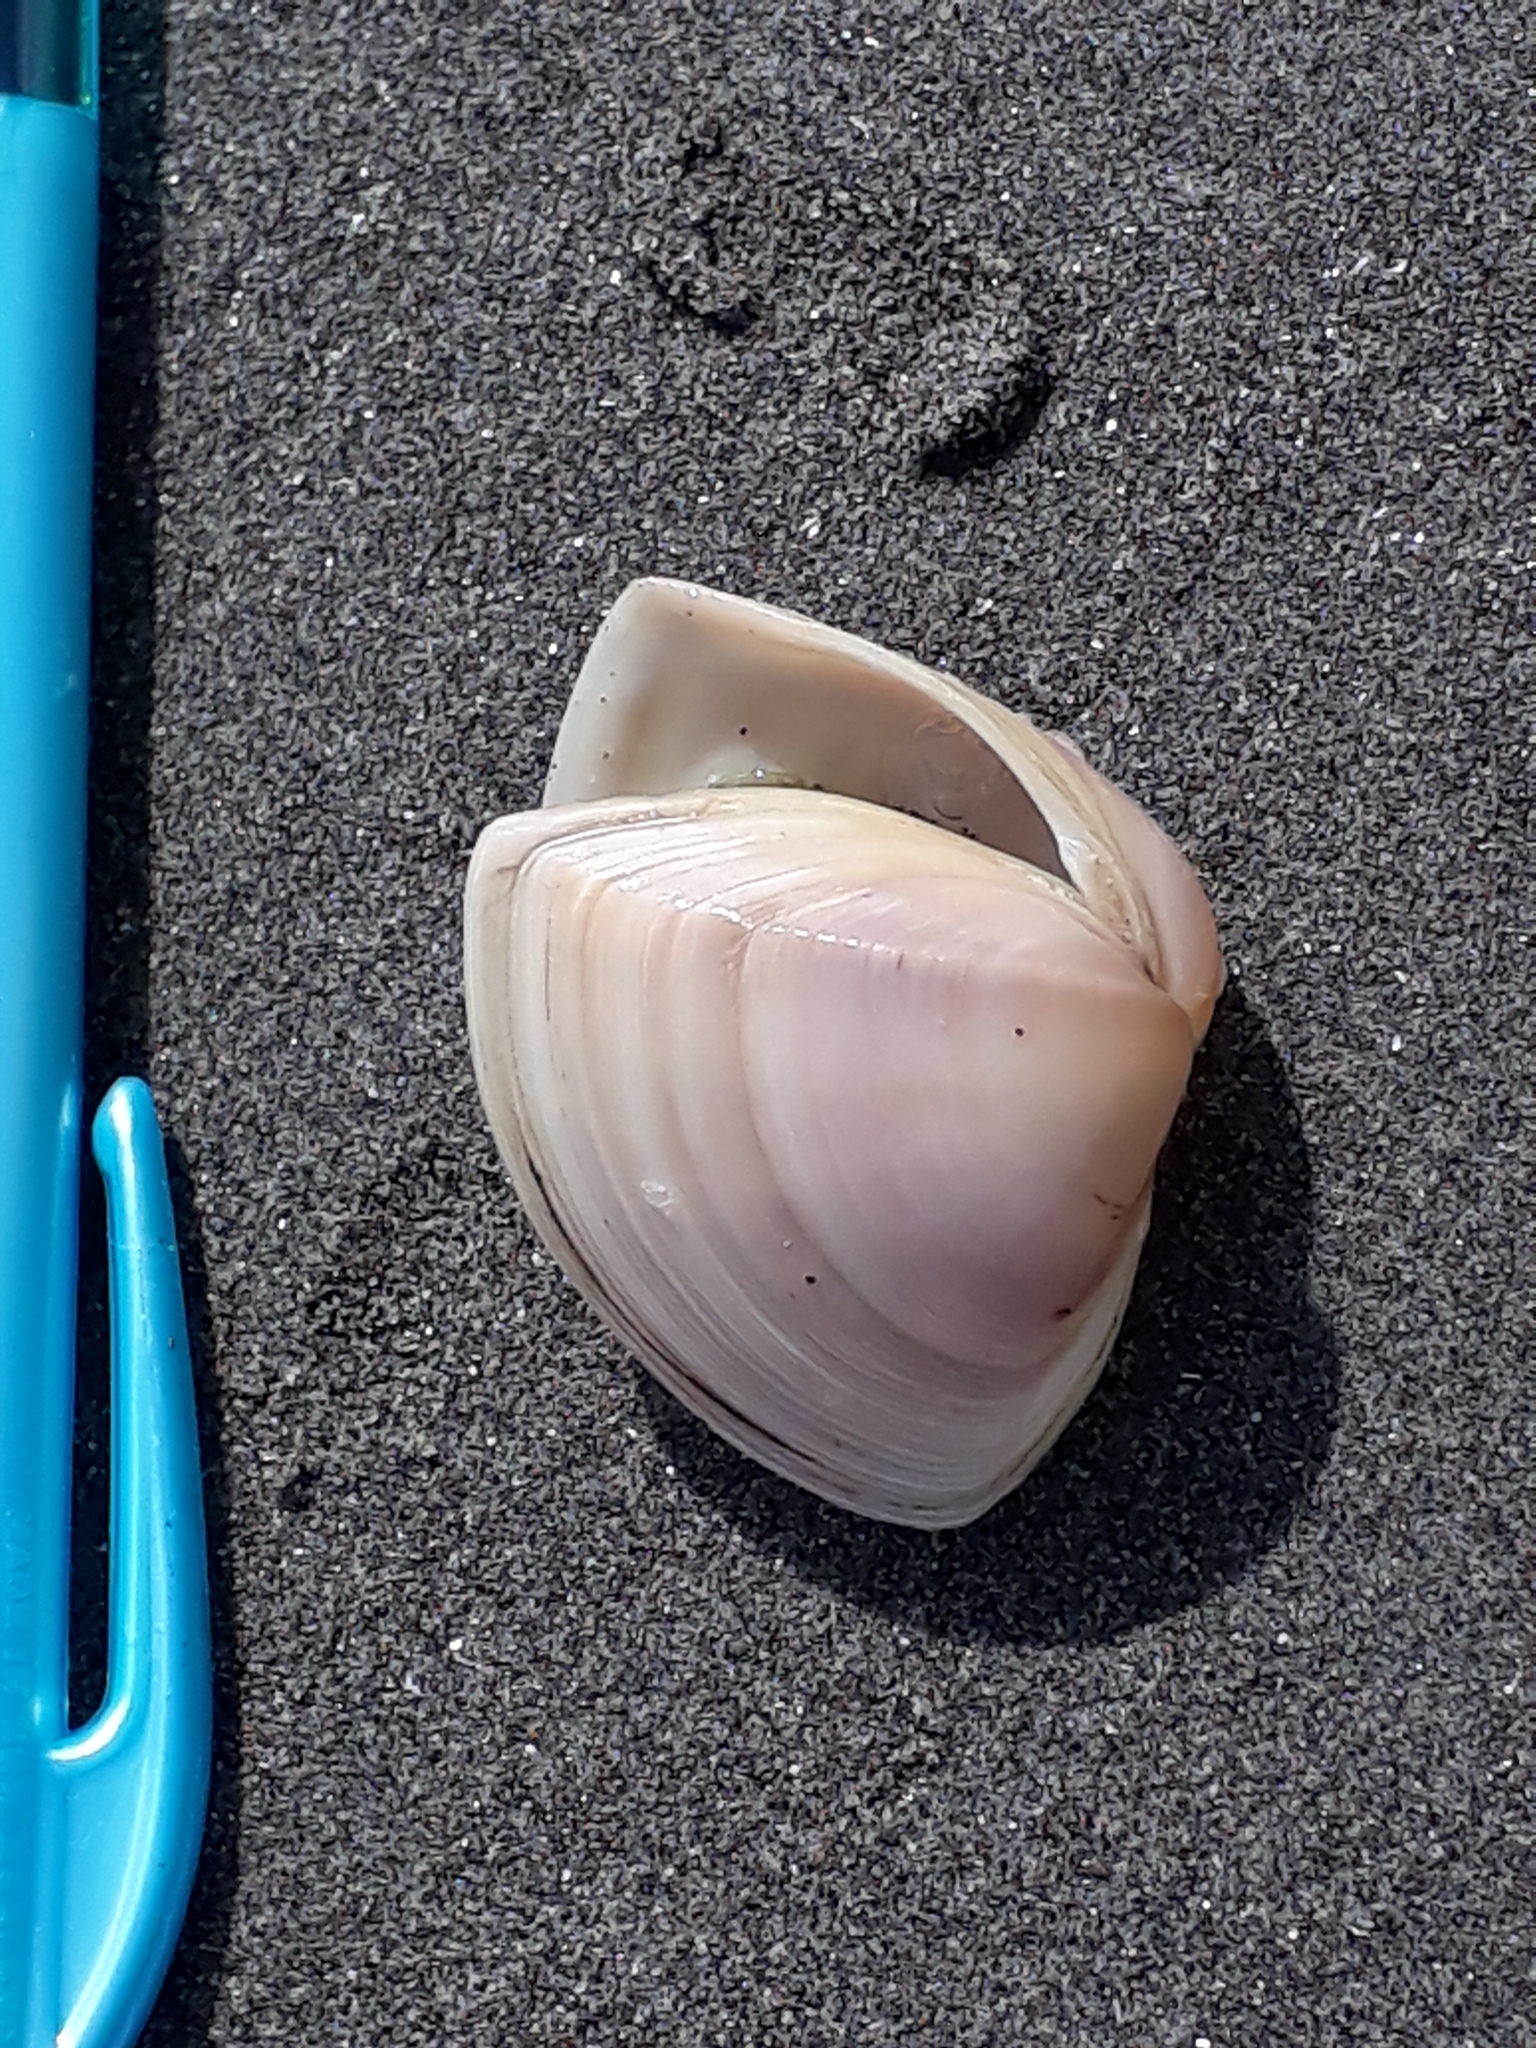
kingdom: Animalia
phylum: Mollusca
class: Bivalvia
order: Venerida
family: Mactridae
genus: Crassula
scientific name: Crassula aequilatera
